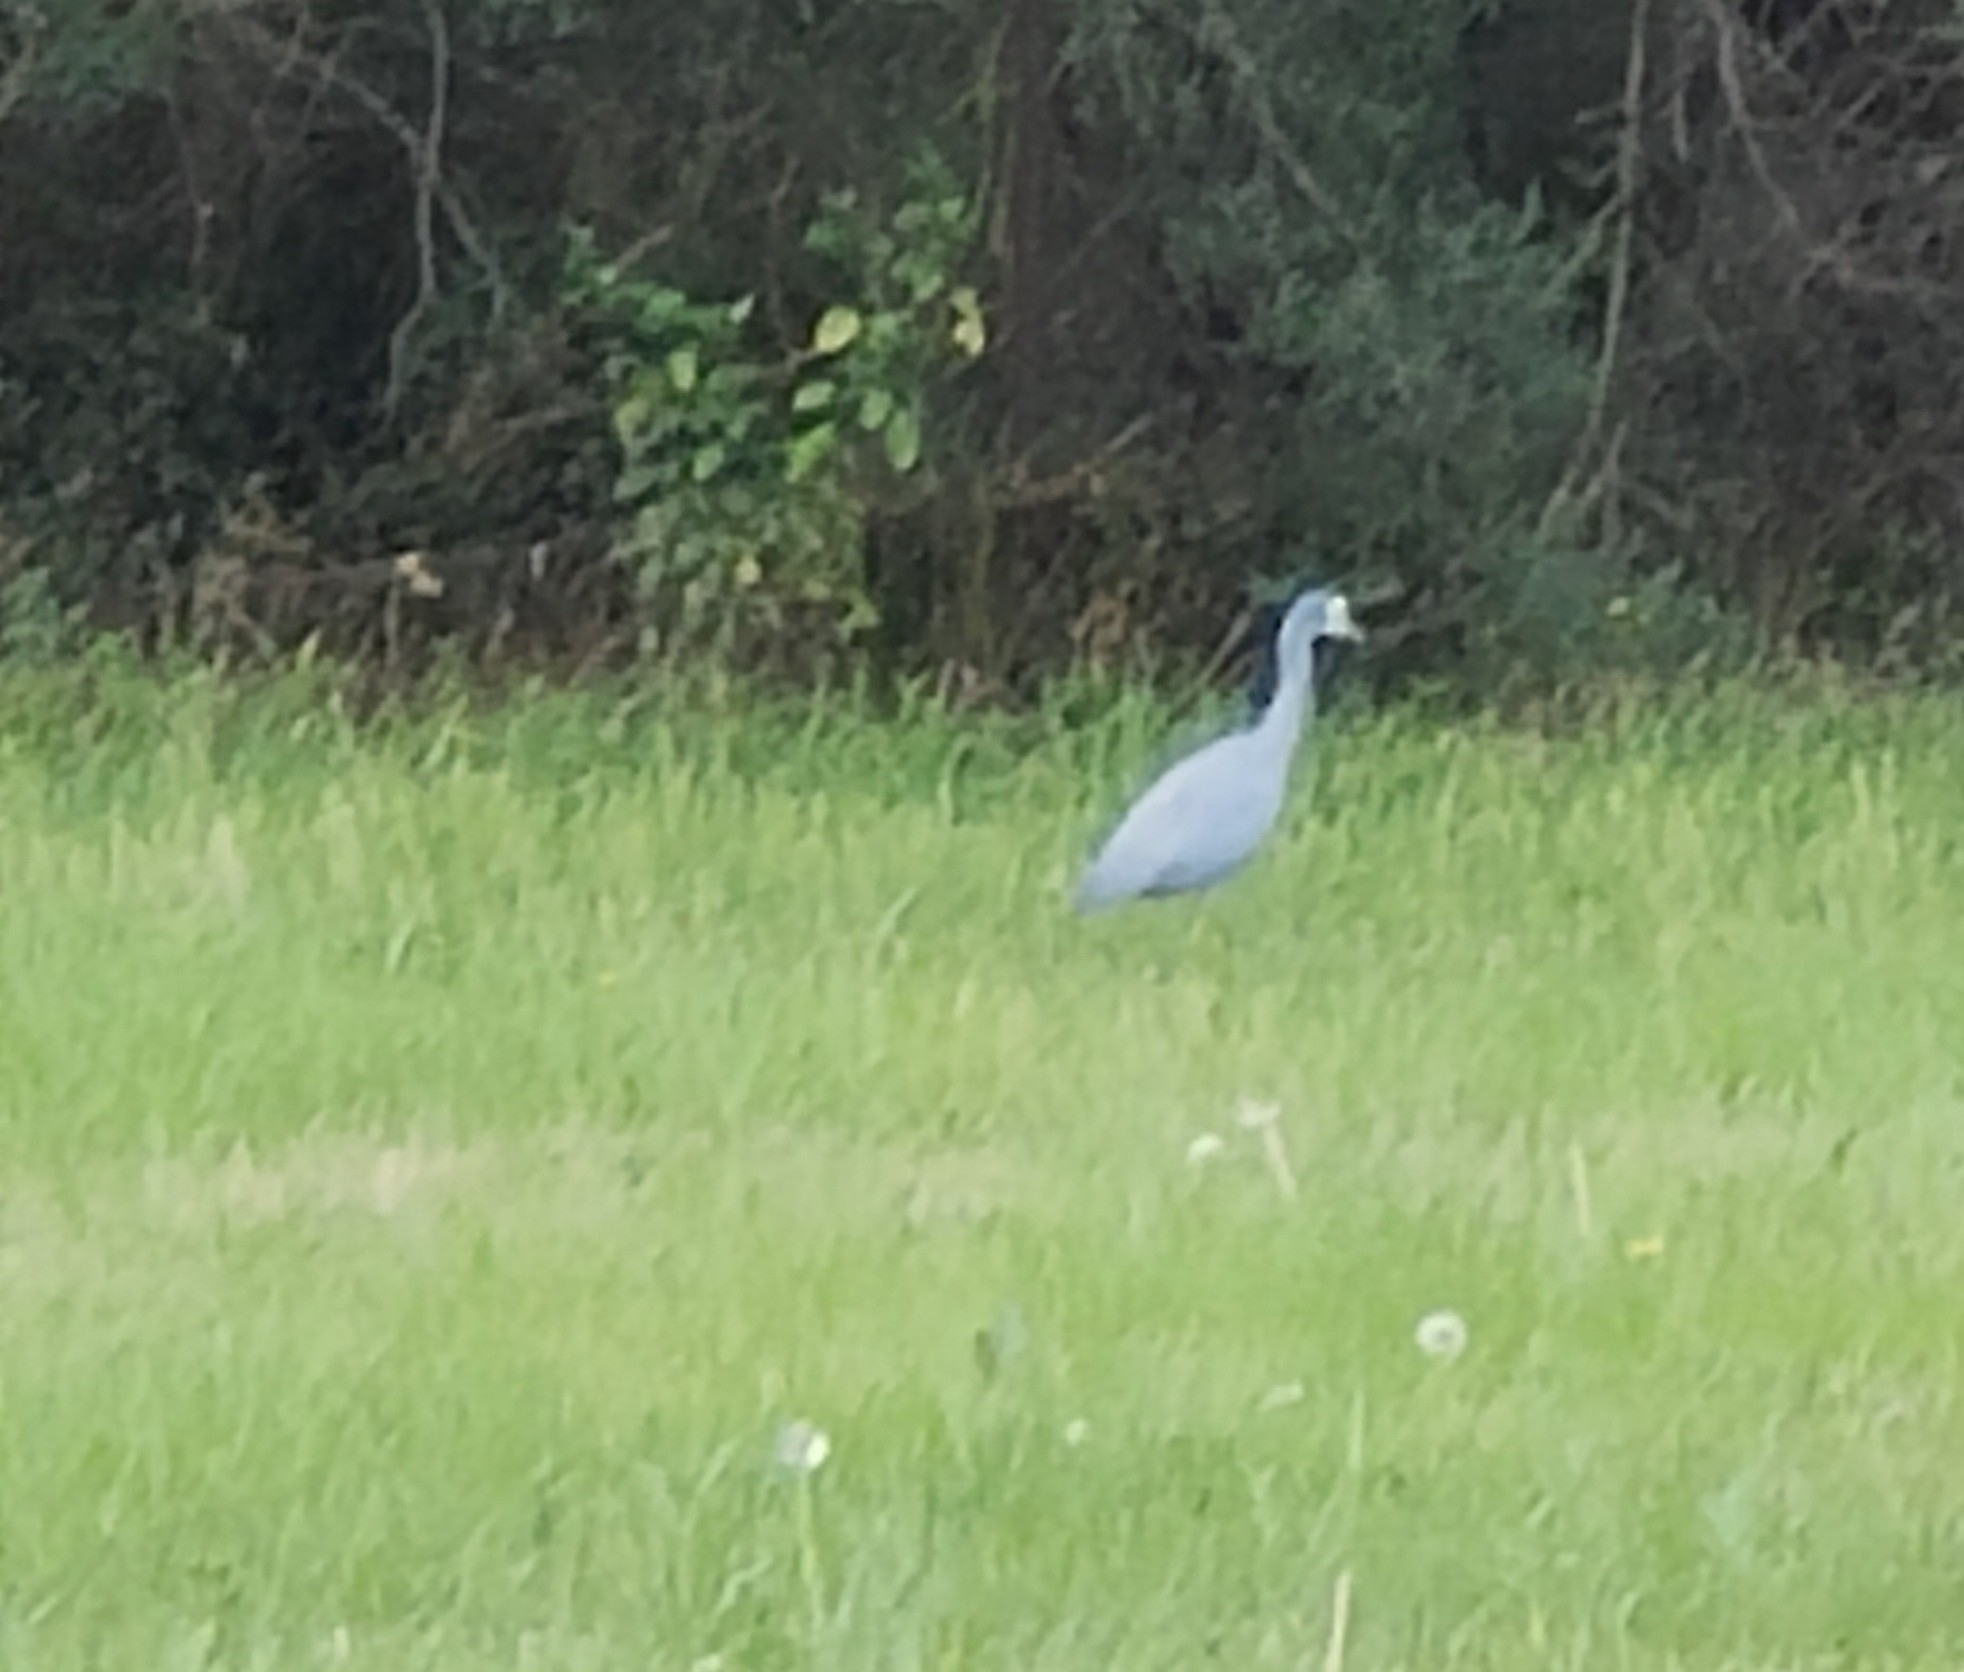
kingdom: Animalia
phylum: Chordata
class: Aves
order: Pelecaniformes
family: Ardeidae
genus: Egretta
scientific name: Egretta novaehollandiae
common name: White-faced heron
